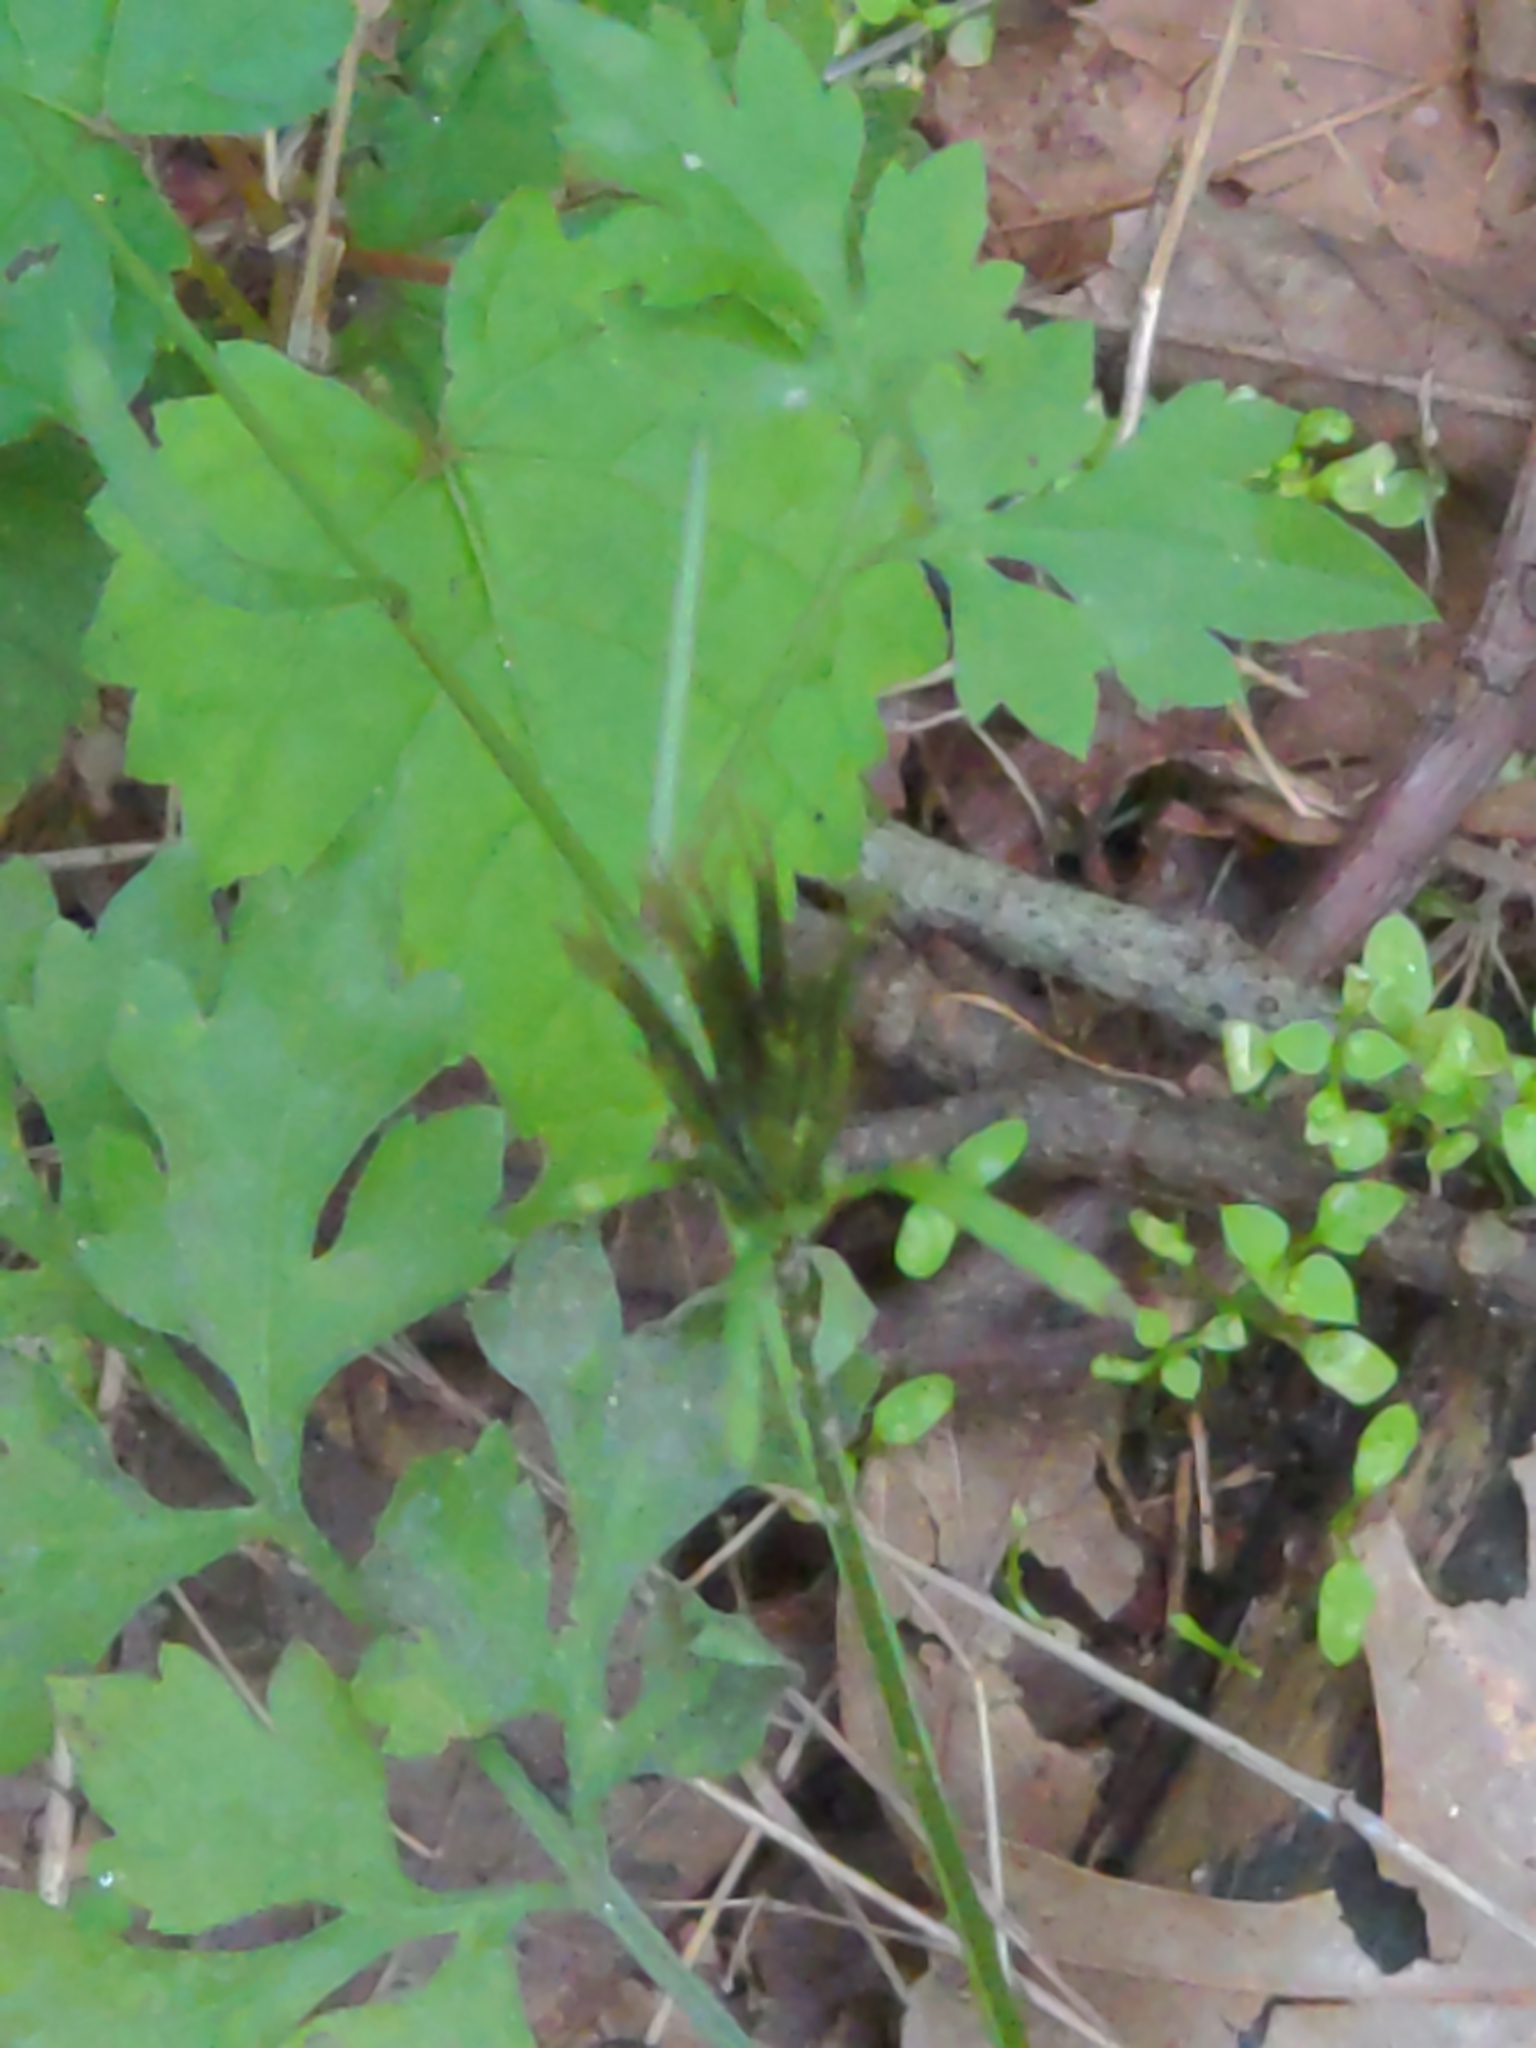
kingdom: Plantae
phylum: Tracheophyta
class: Magnoliopsida
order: Asterales
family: Asteraceae
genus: Bidens
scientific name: Bidens bipinnata
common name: Spanish-needles
